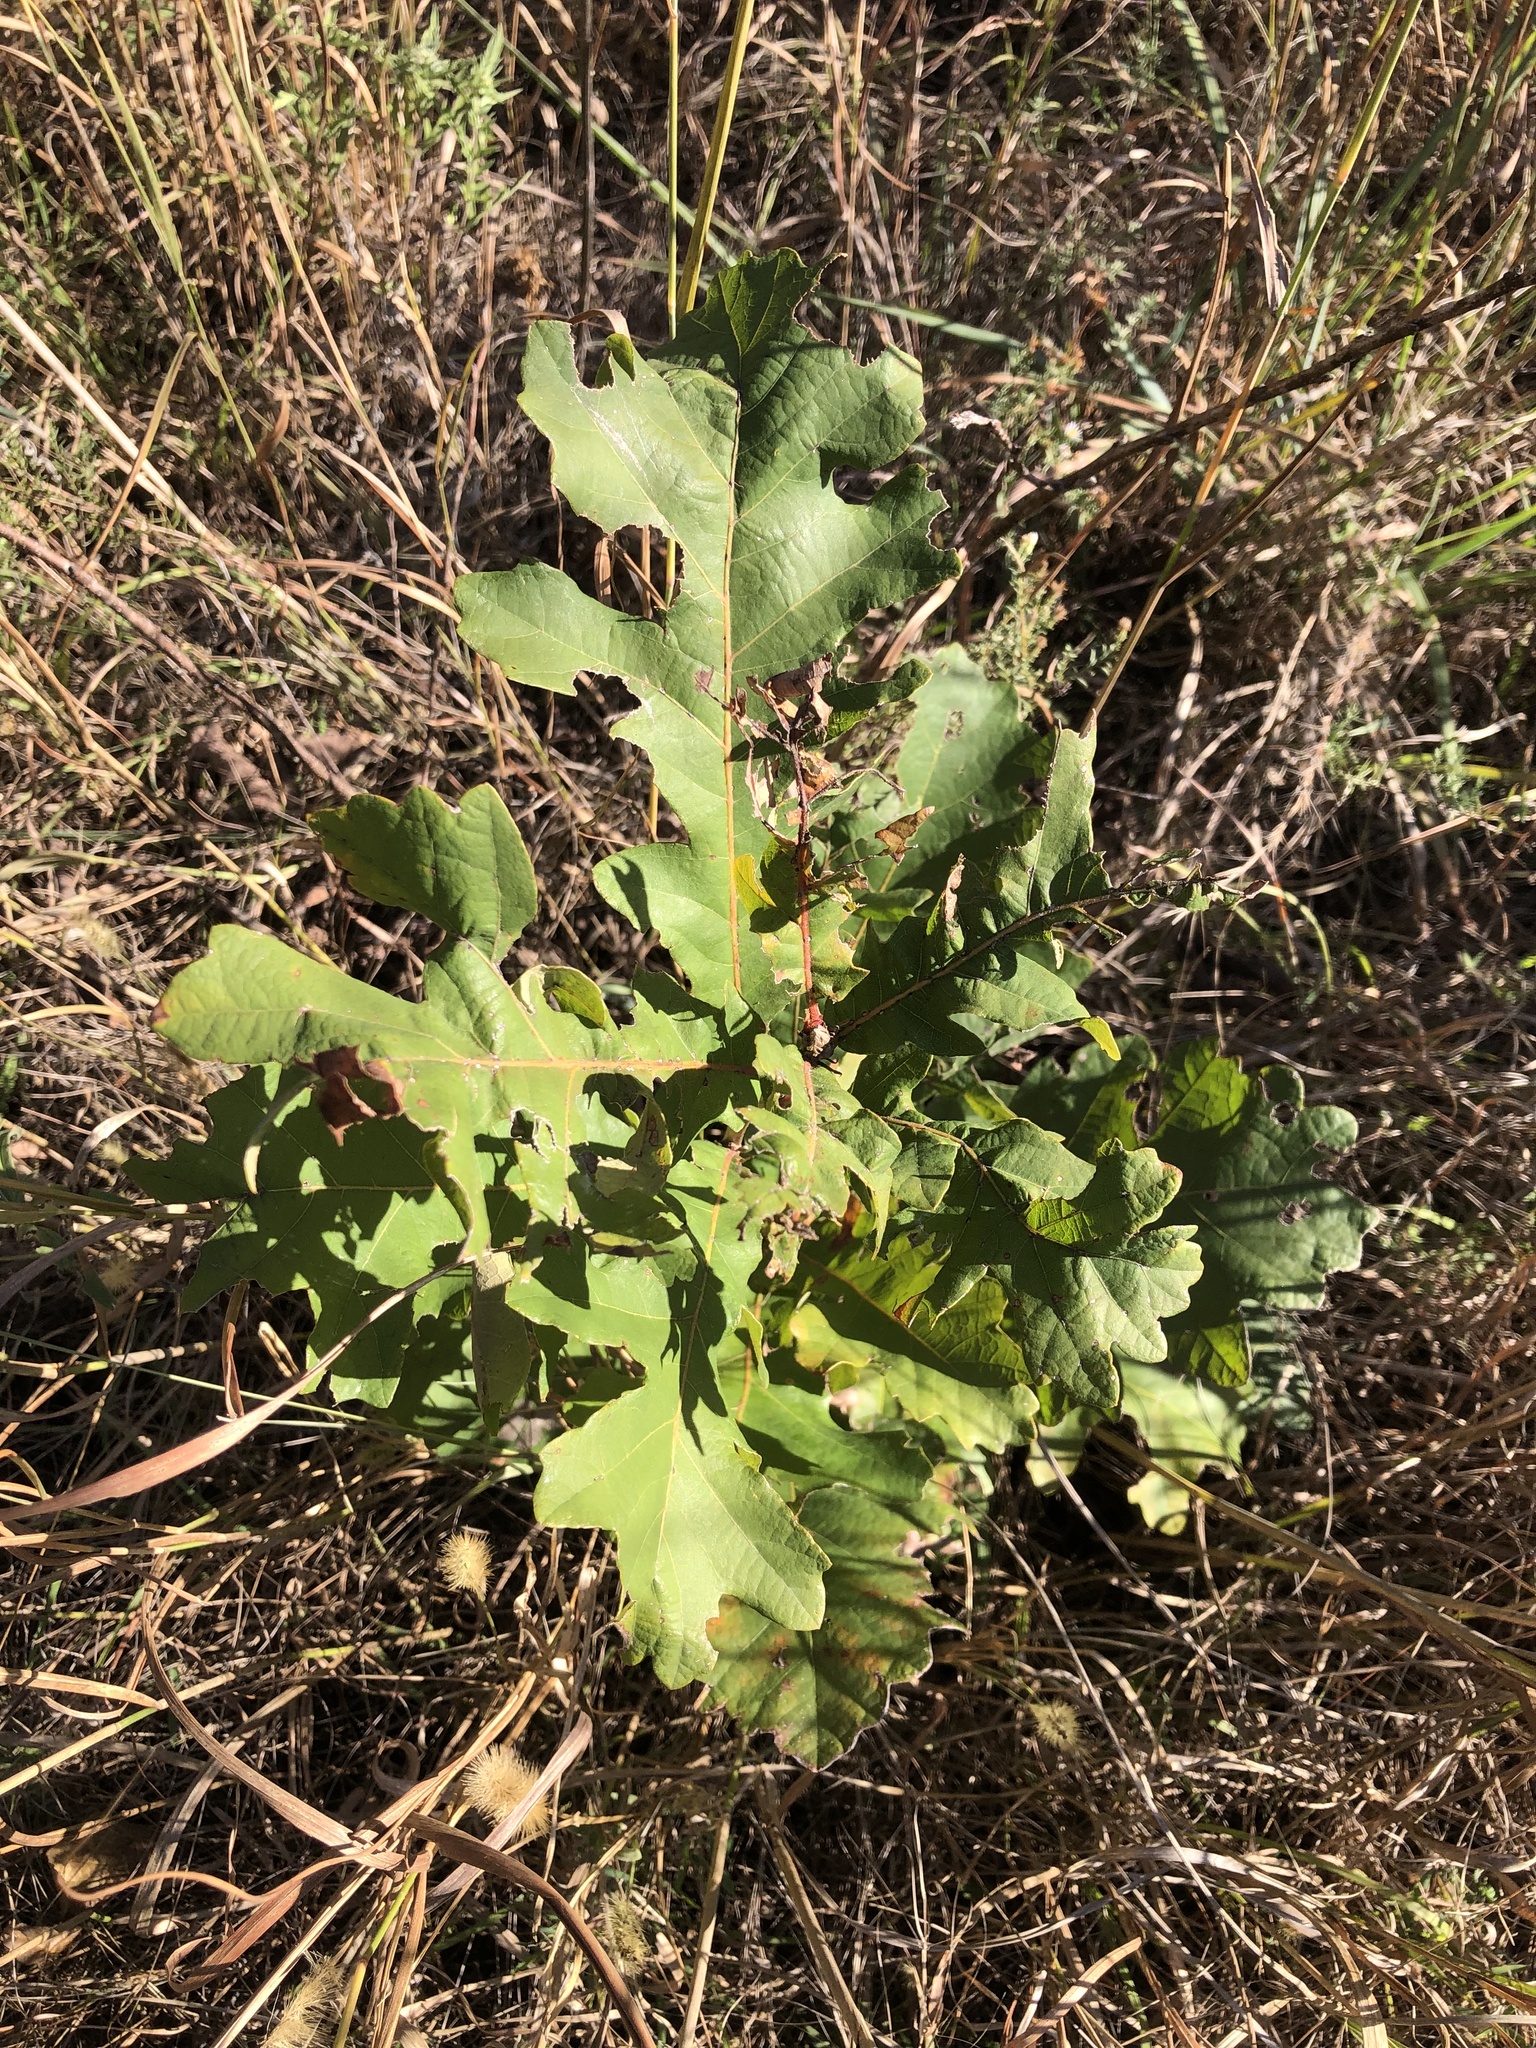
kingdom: Plantae
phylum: Tracheophyta
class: Magnoliopsida
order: Fagales
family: Fagaceae
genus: Quercus
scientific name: Quercus macrocarpa
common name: Bur oak
